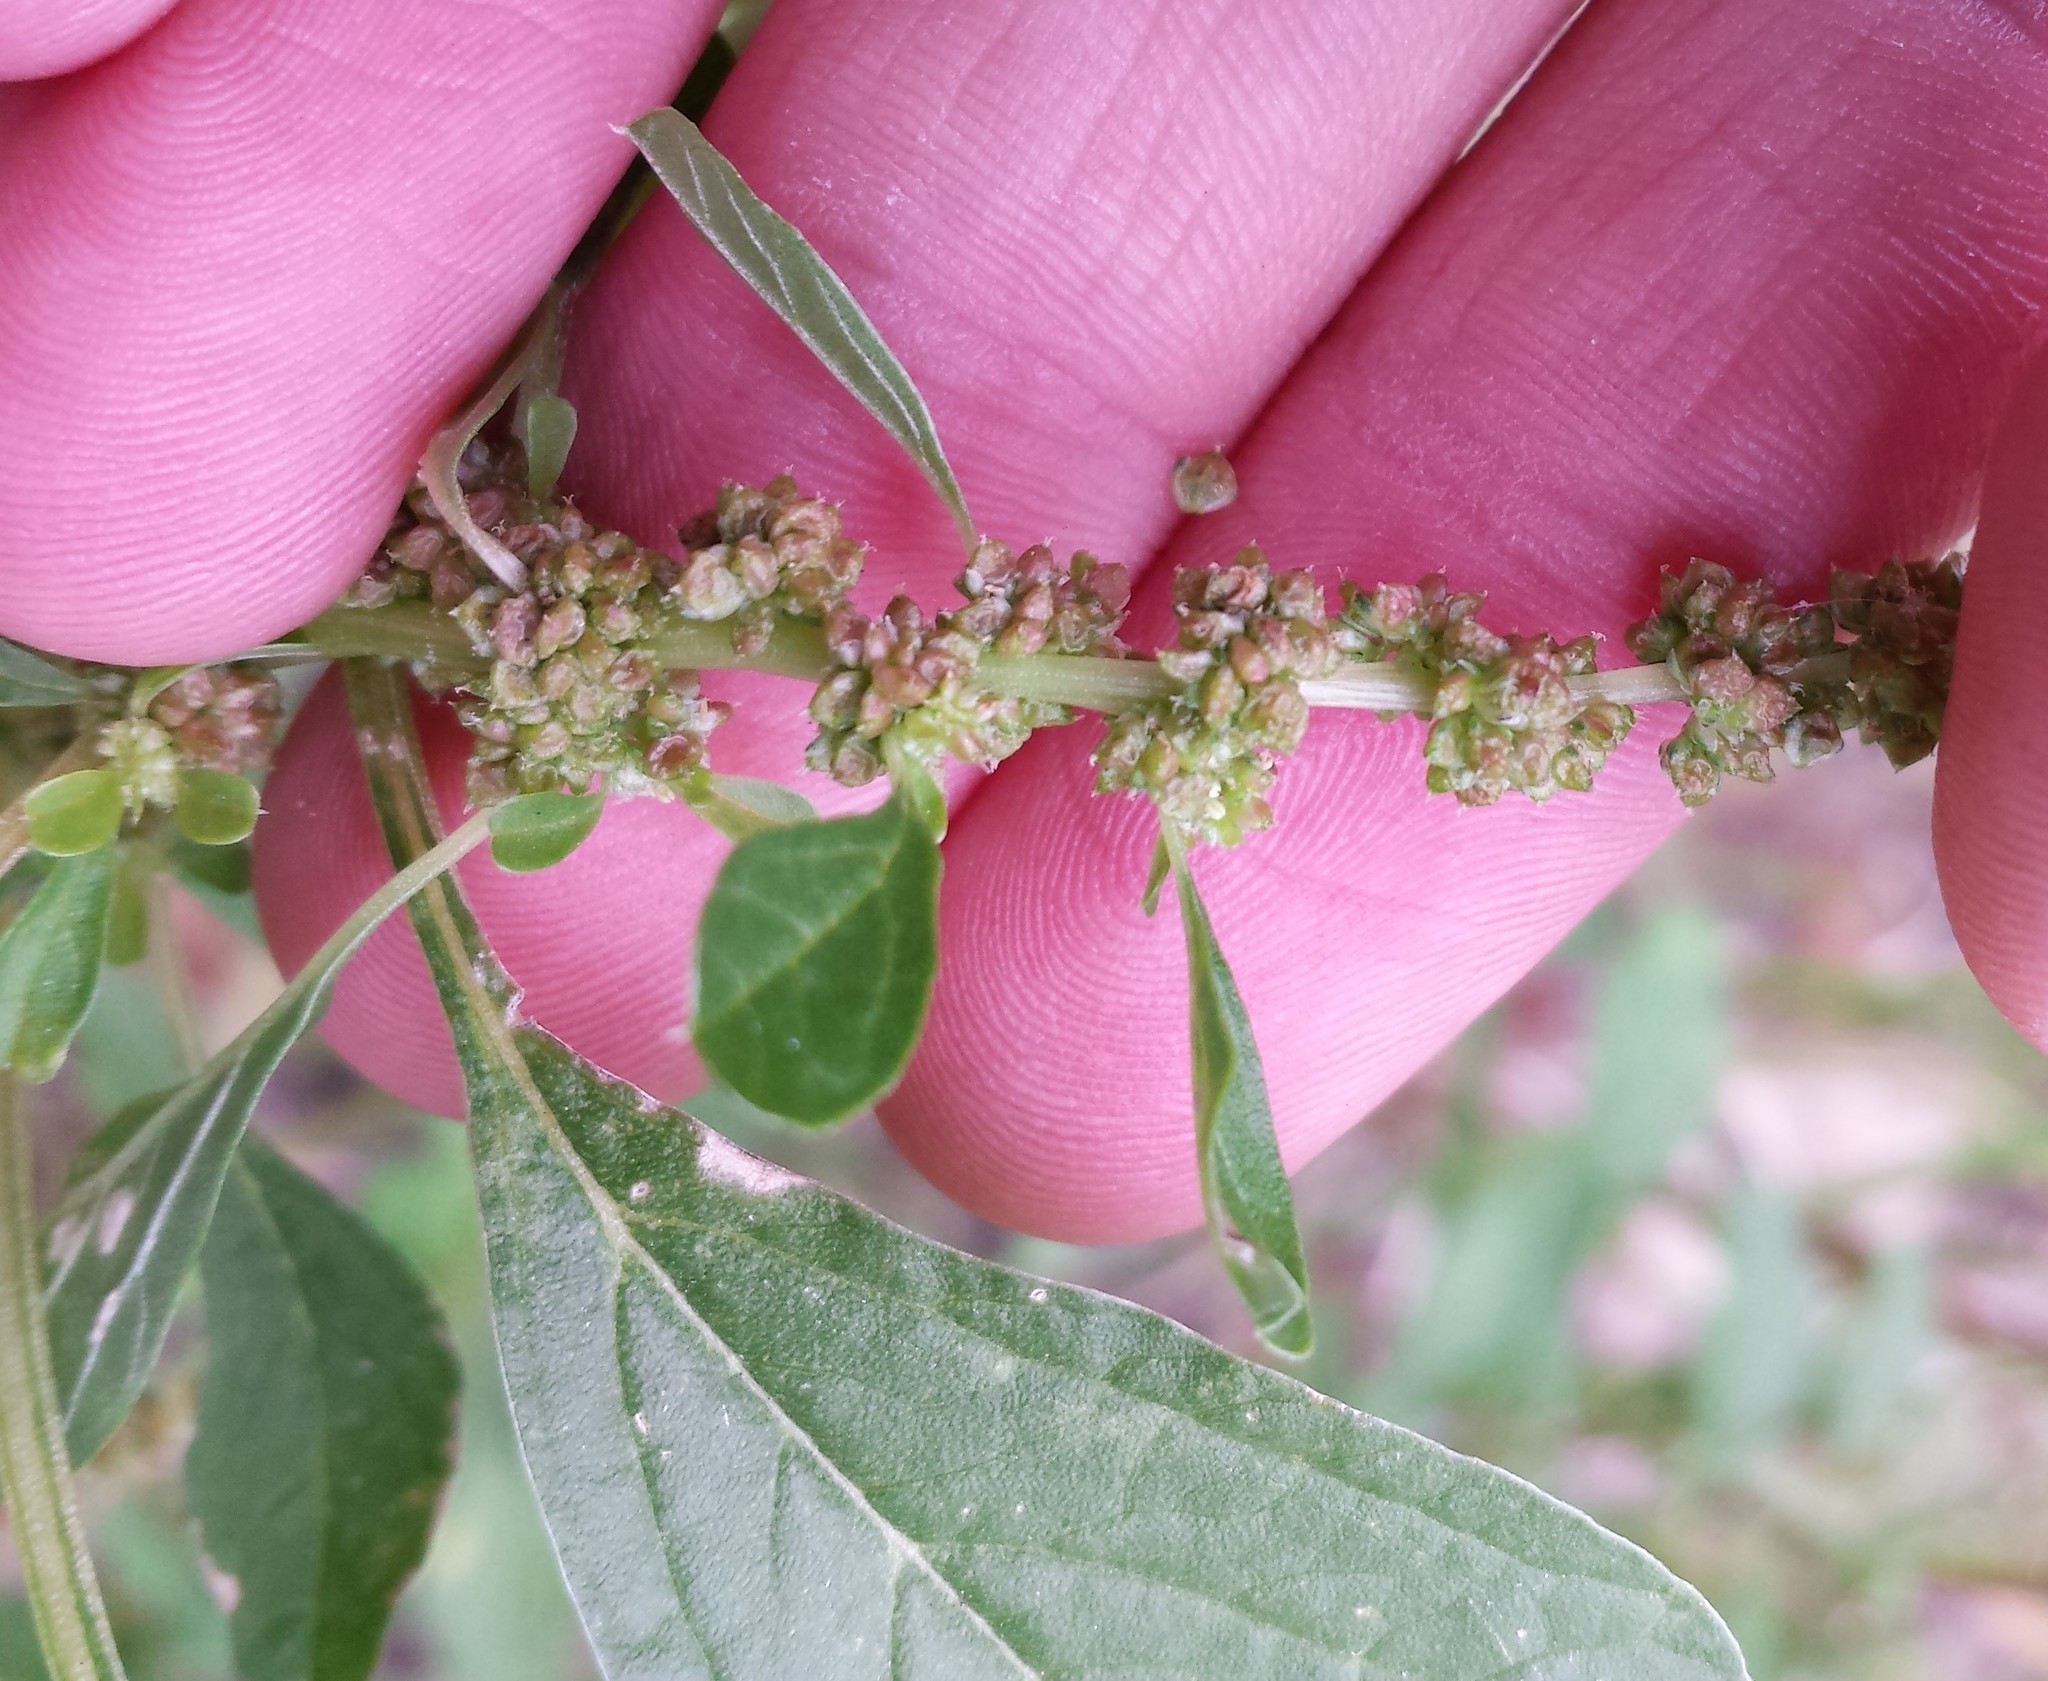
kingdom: Plantae
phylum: Tracheophyta
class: Magnoliopsida
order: Caryophyllales
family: Amaranthaceae
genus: Amaranthus
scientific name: Amaranthus blitum
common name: Purple amaranth
